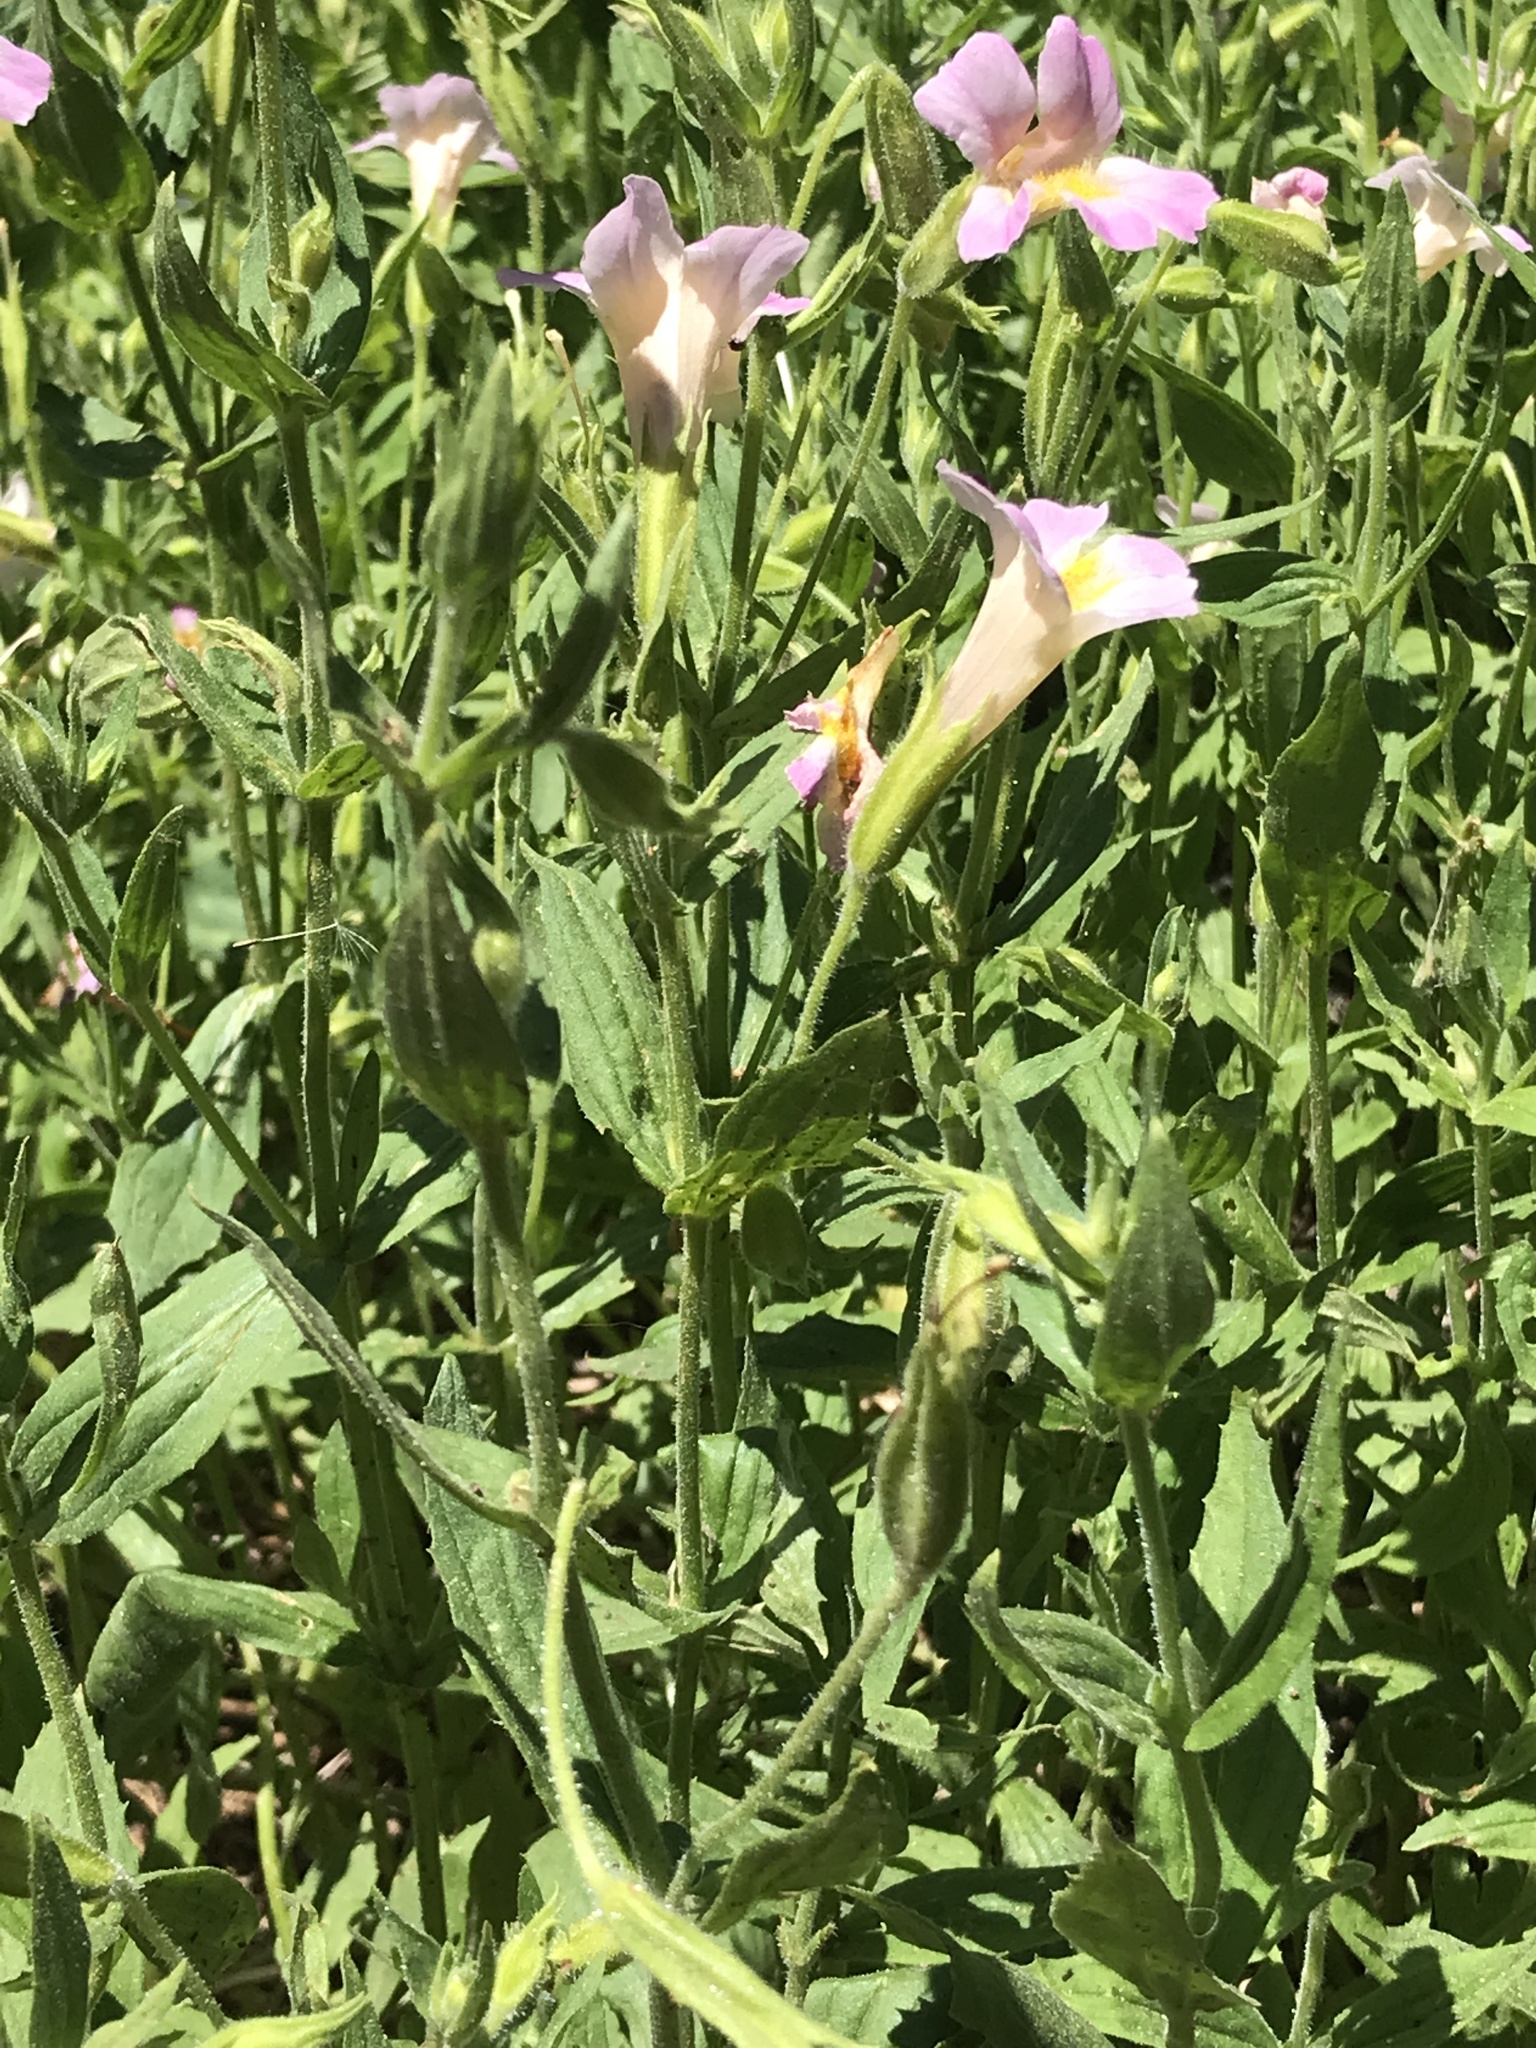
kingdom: Plantae
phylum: Tracheophyta
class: Magnoliopsida
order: Lamiales
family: Phrymaceae
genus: Erythranthe
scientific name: Erythranthe erubescens
